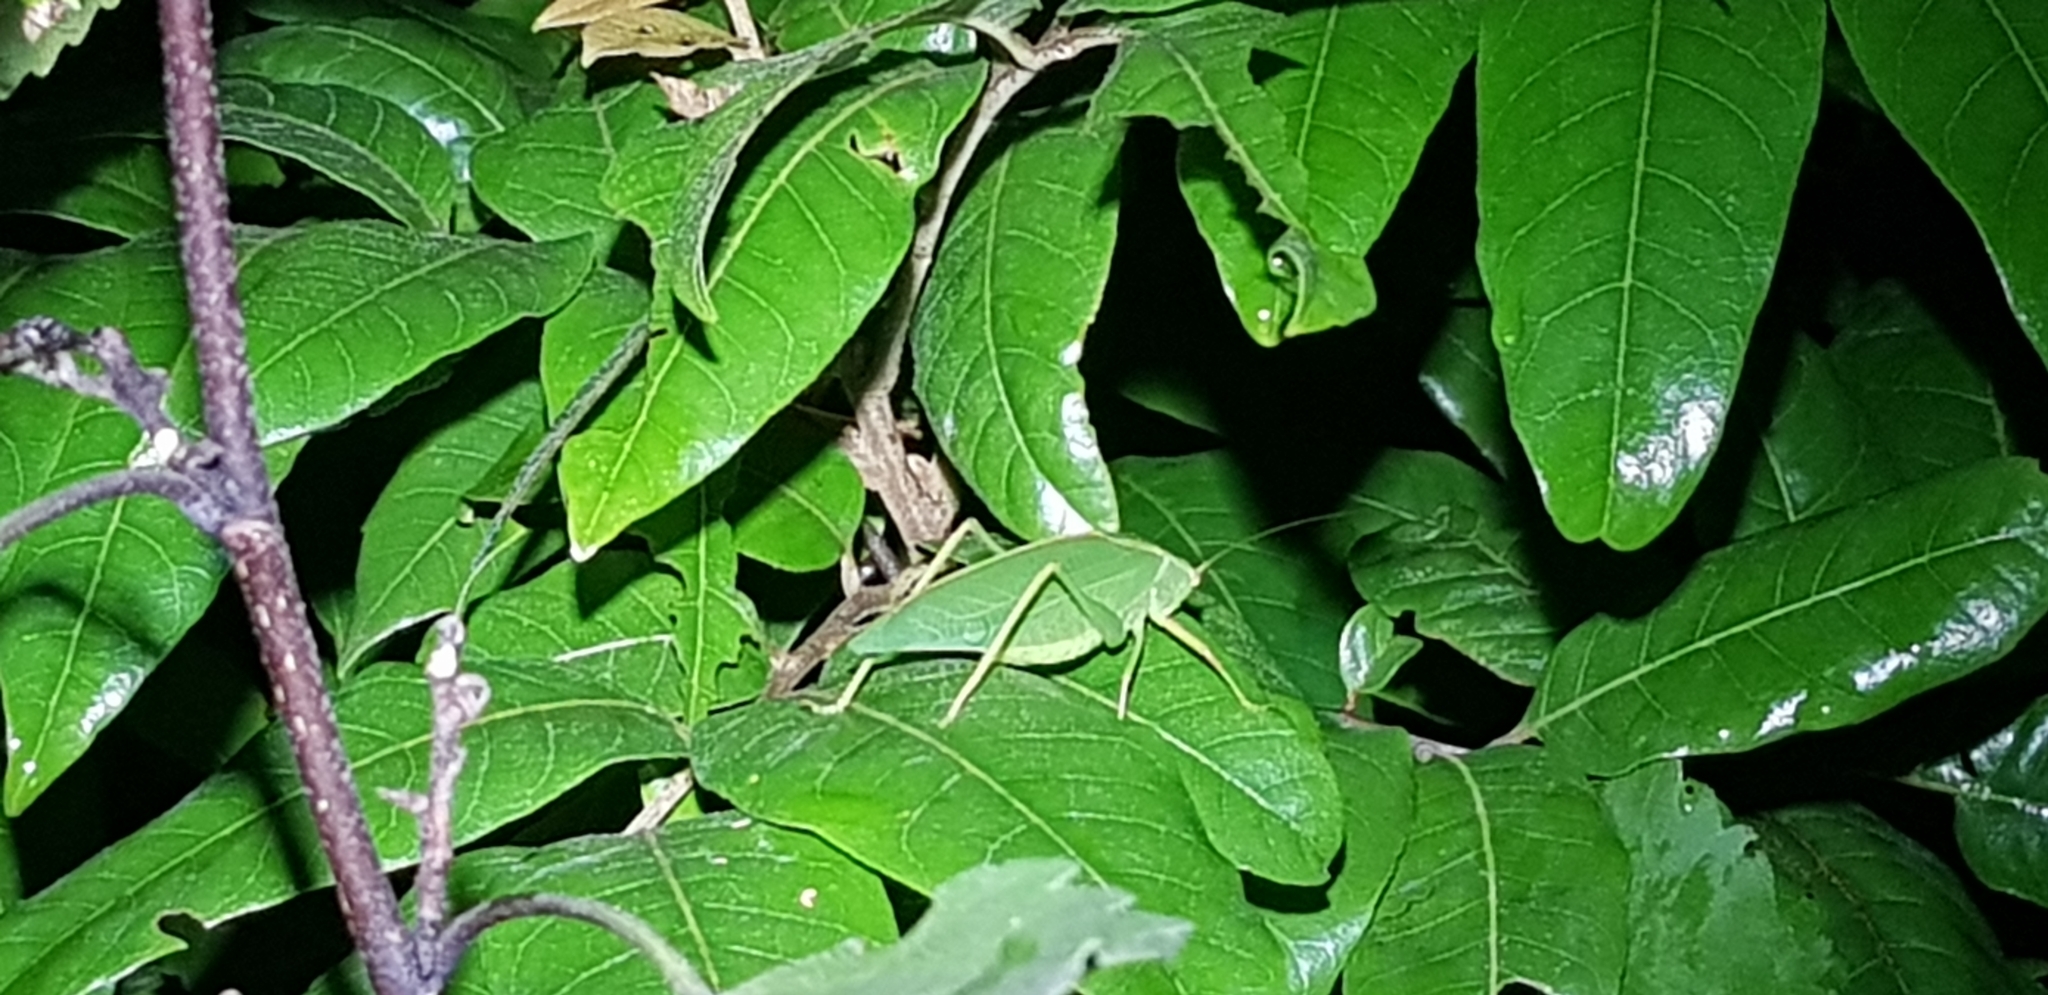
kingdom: Animalia
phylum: Arthropoda
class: Insecta
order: Orthoptera
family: Tettigoniidae
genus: Caedicia
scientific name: Caedicia simplex
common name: Common garden katydid
